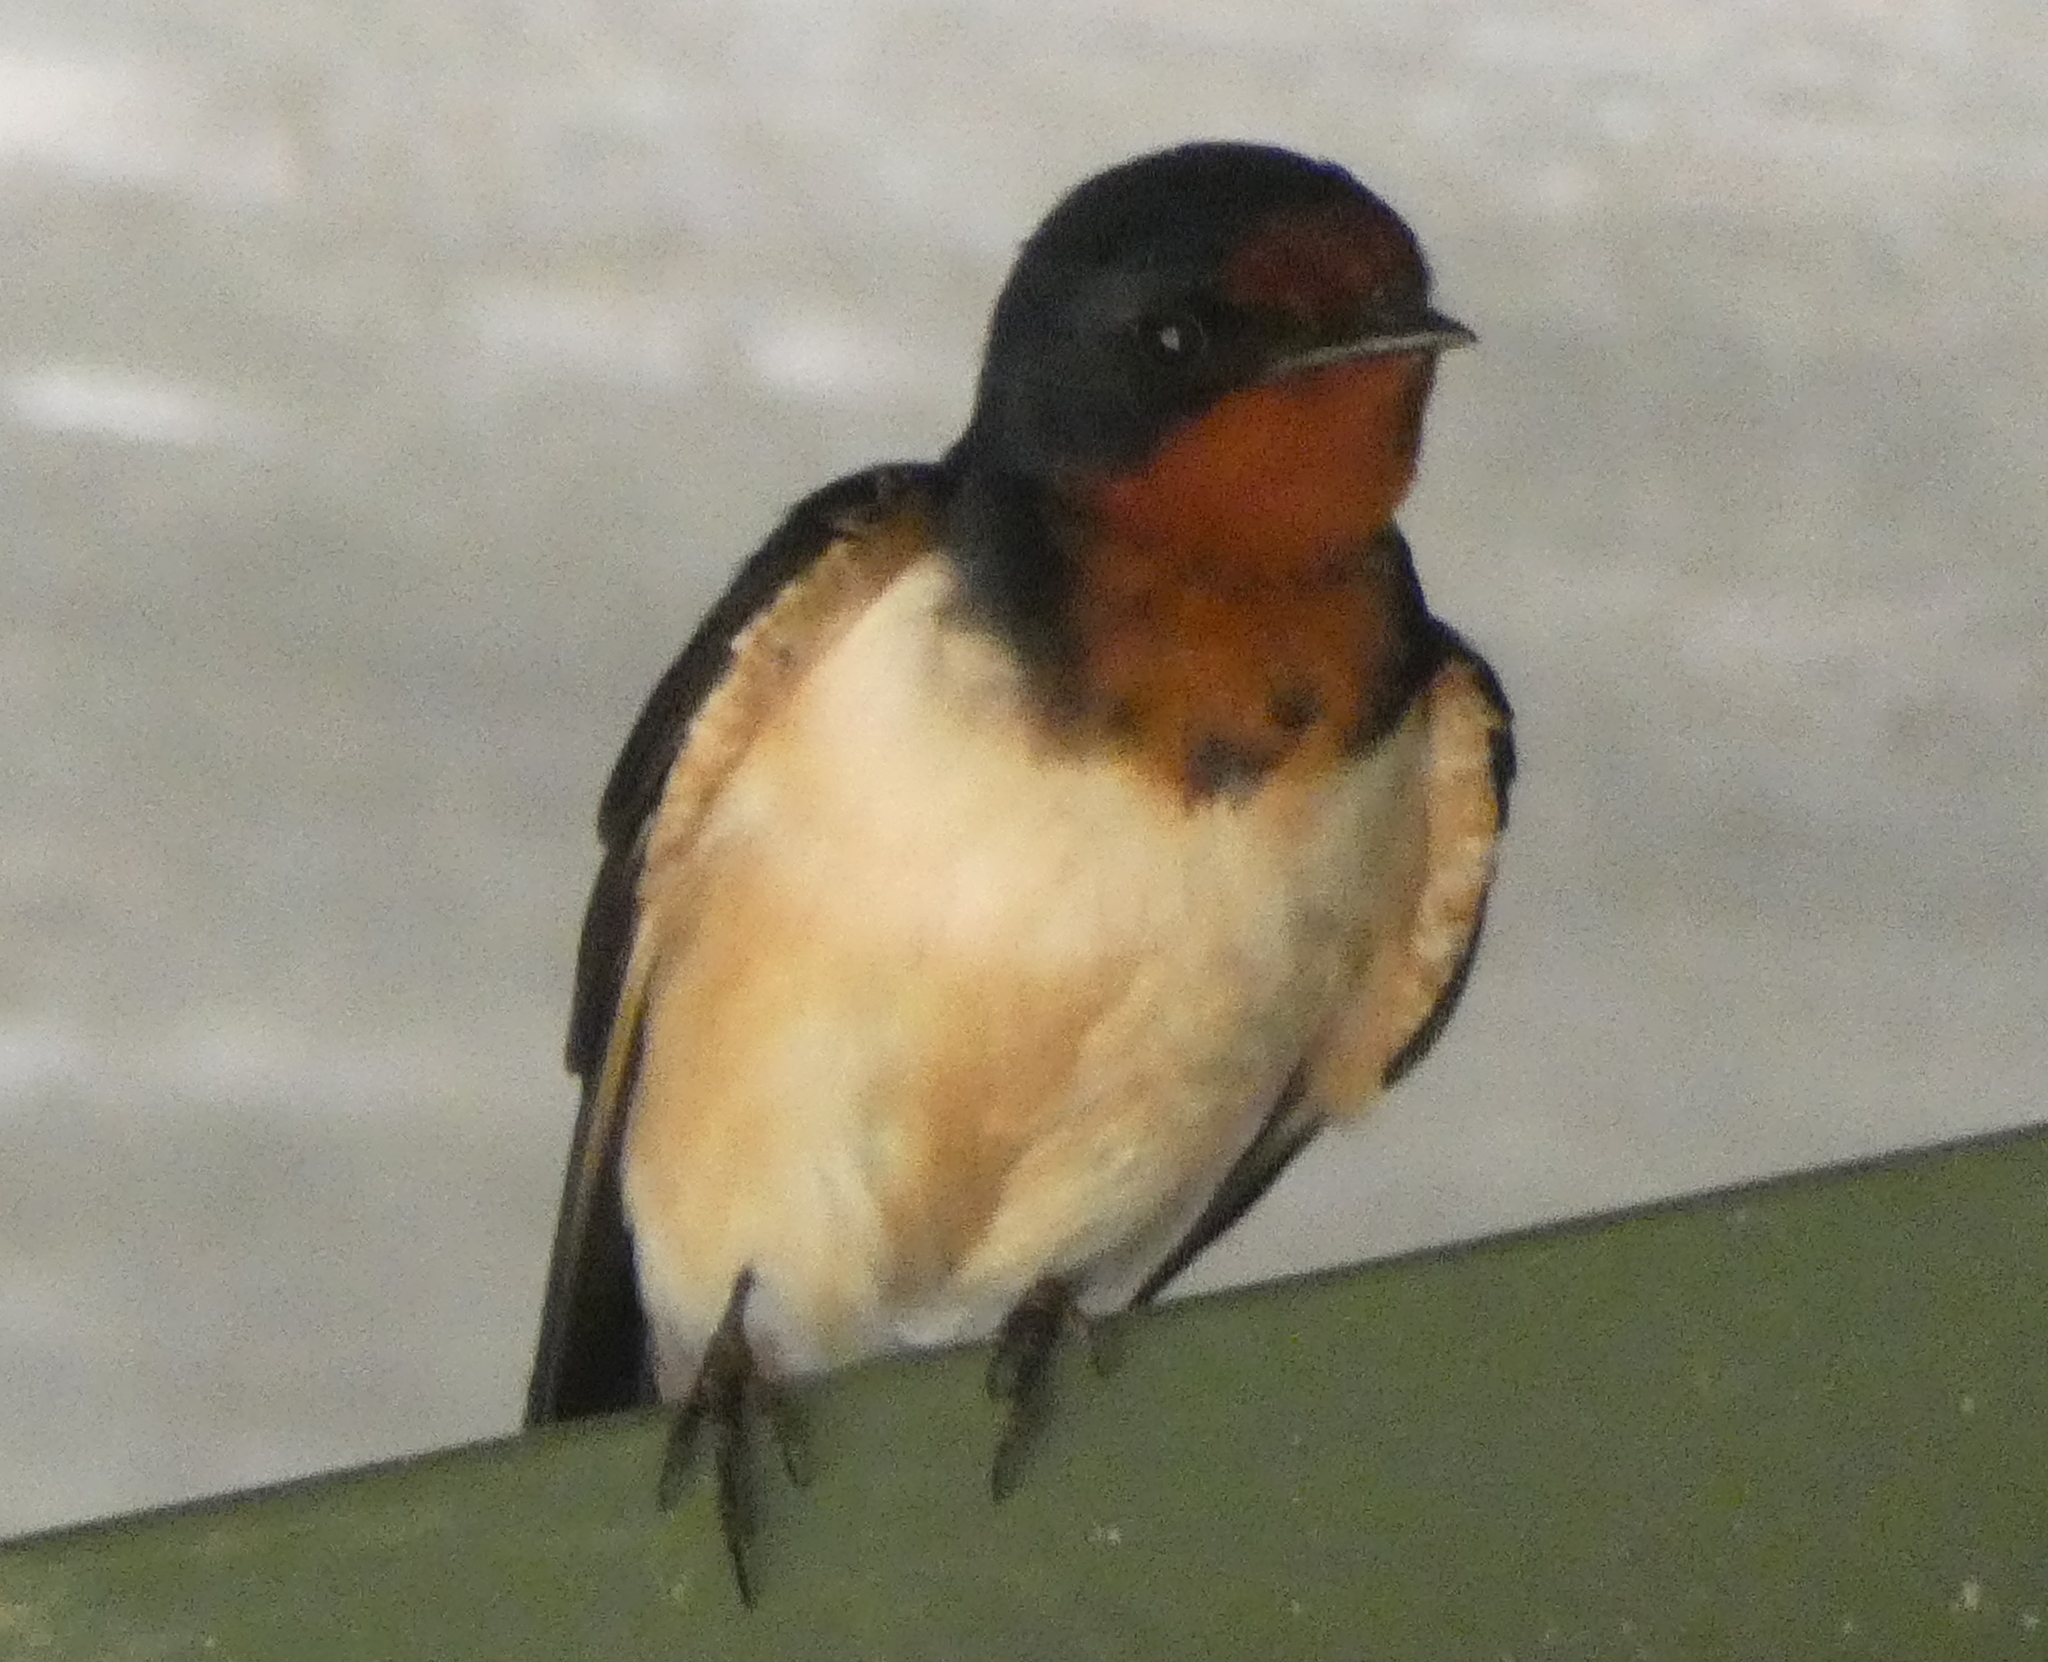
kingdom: Animalia
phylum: Chordata
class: Aves
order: Passeriformes
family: Hirundinidae
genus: Hirundo
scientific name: Hirundo rustica
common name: Barn swallow
